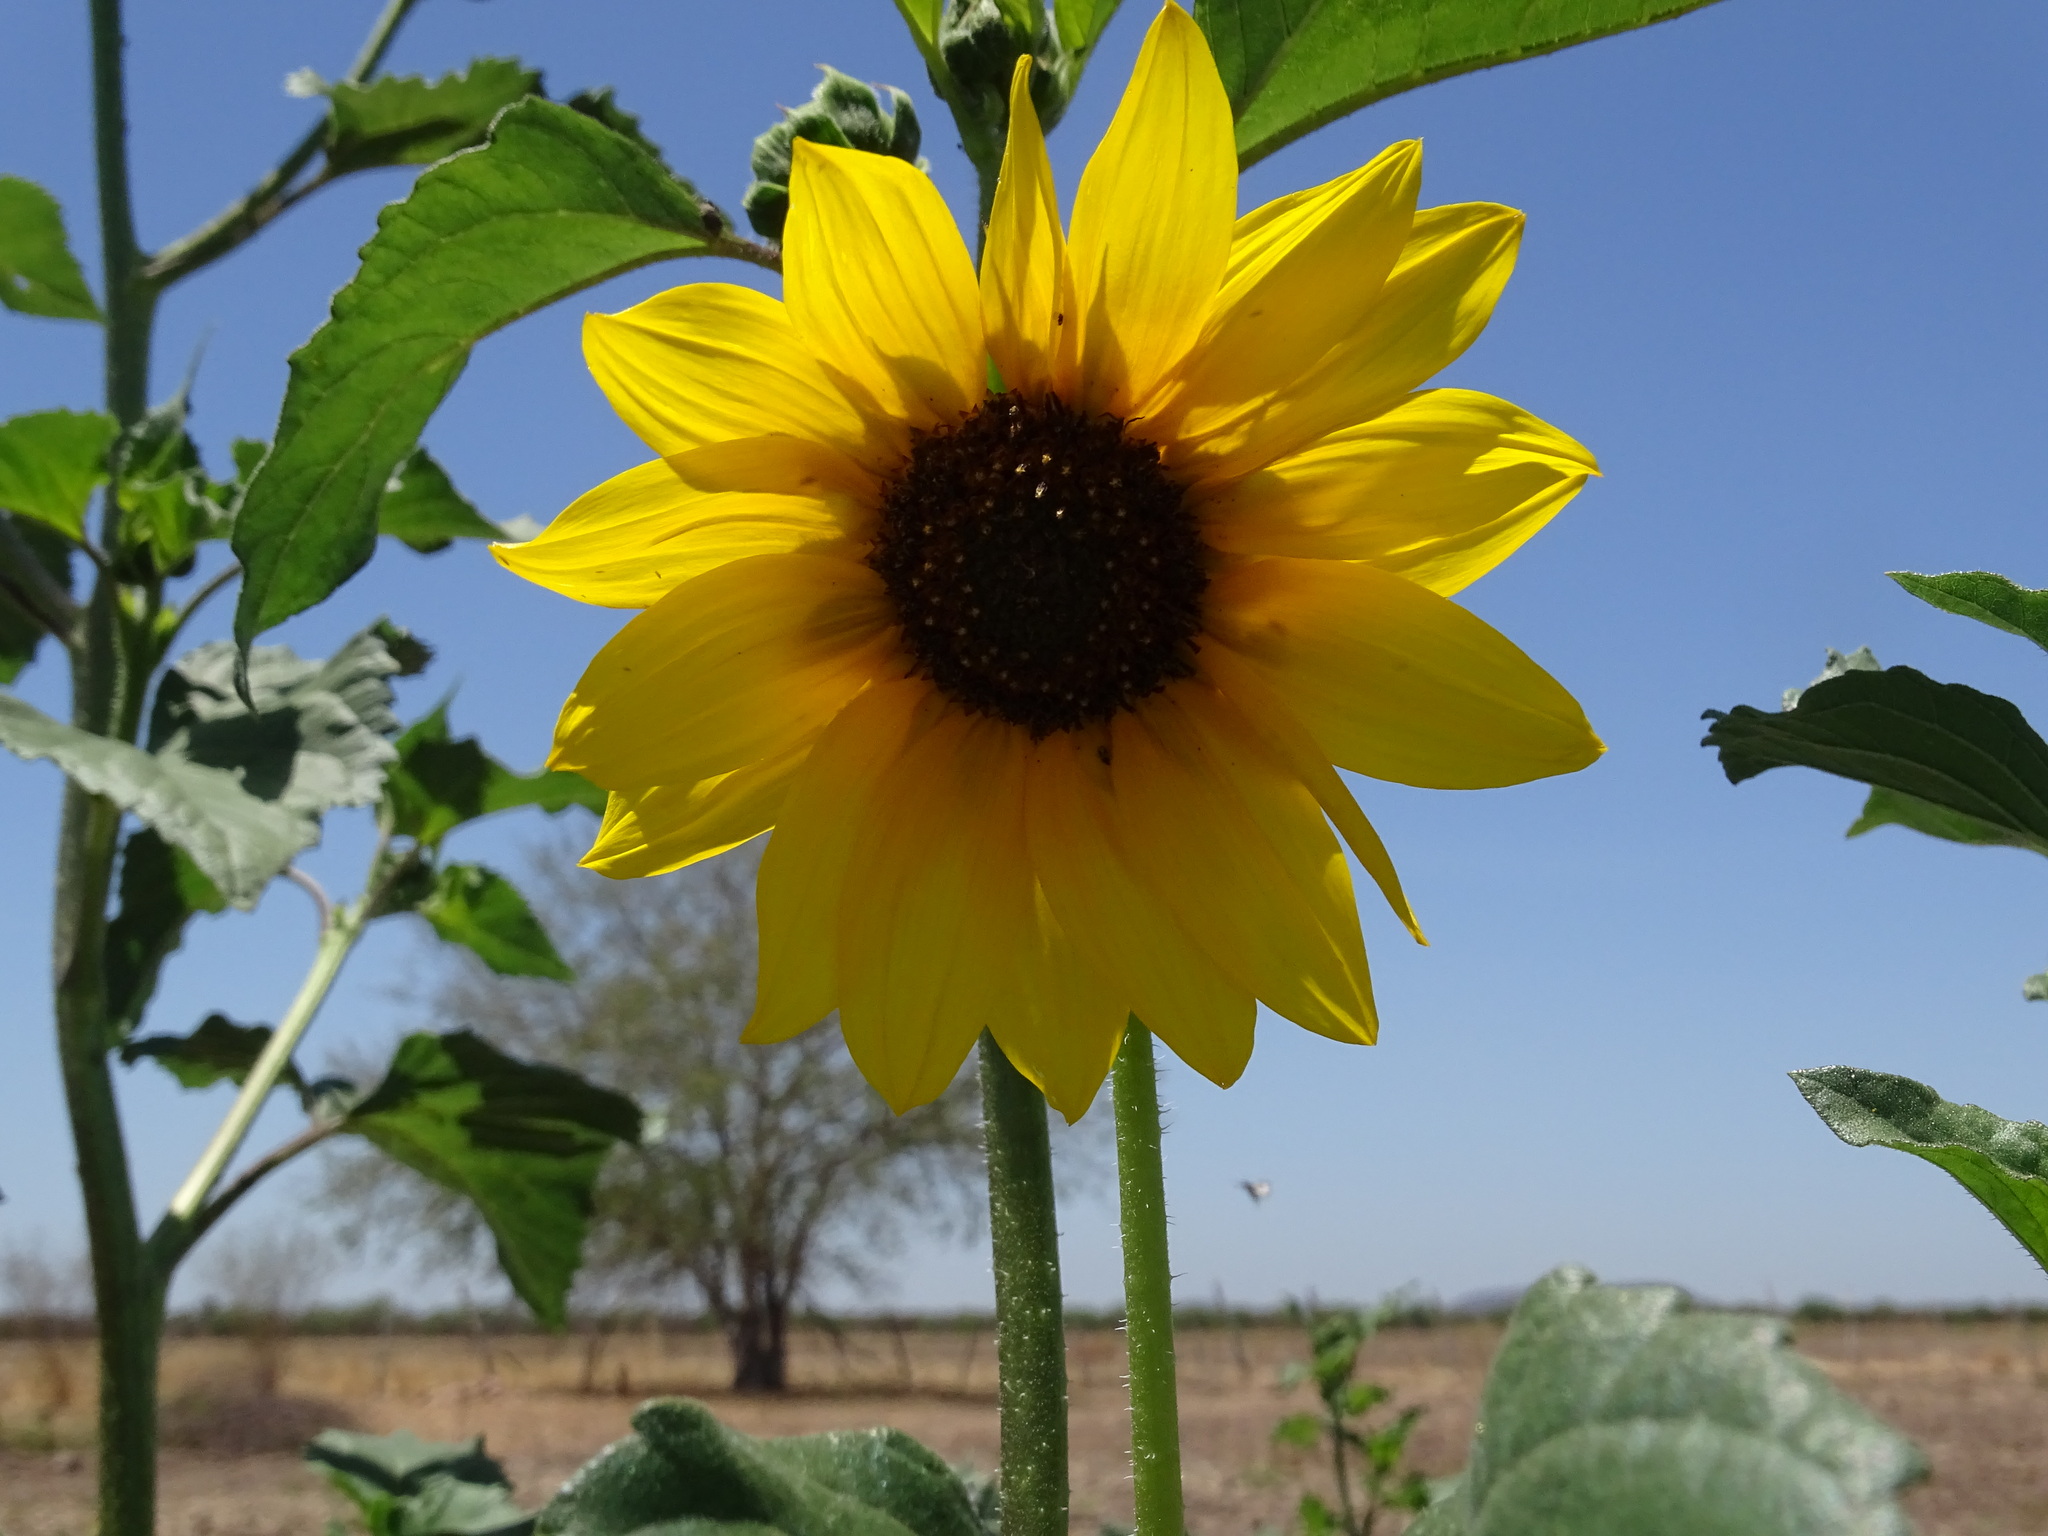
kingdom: Plantae
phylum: Tracheophyta
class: Magnoliopsida
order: Asterales
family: Asteraceae
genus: Helianthus
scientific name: Helianthus annuus
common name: Sunflower
